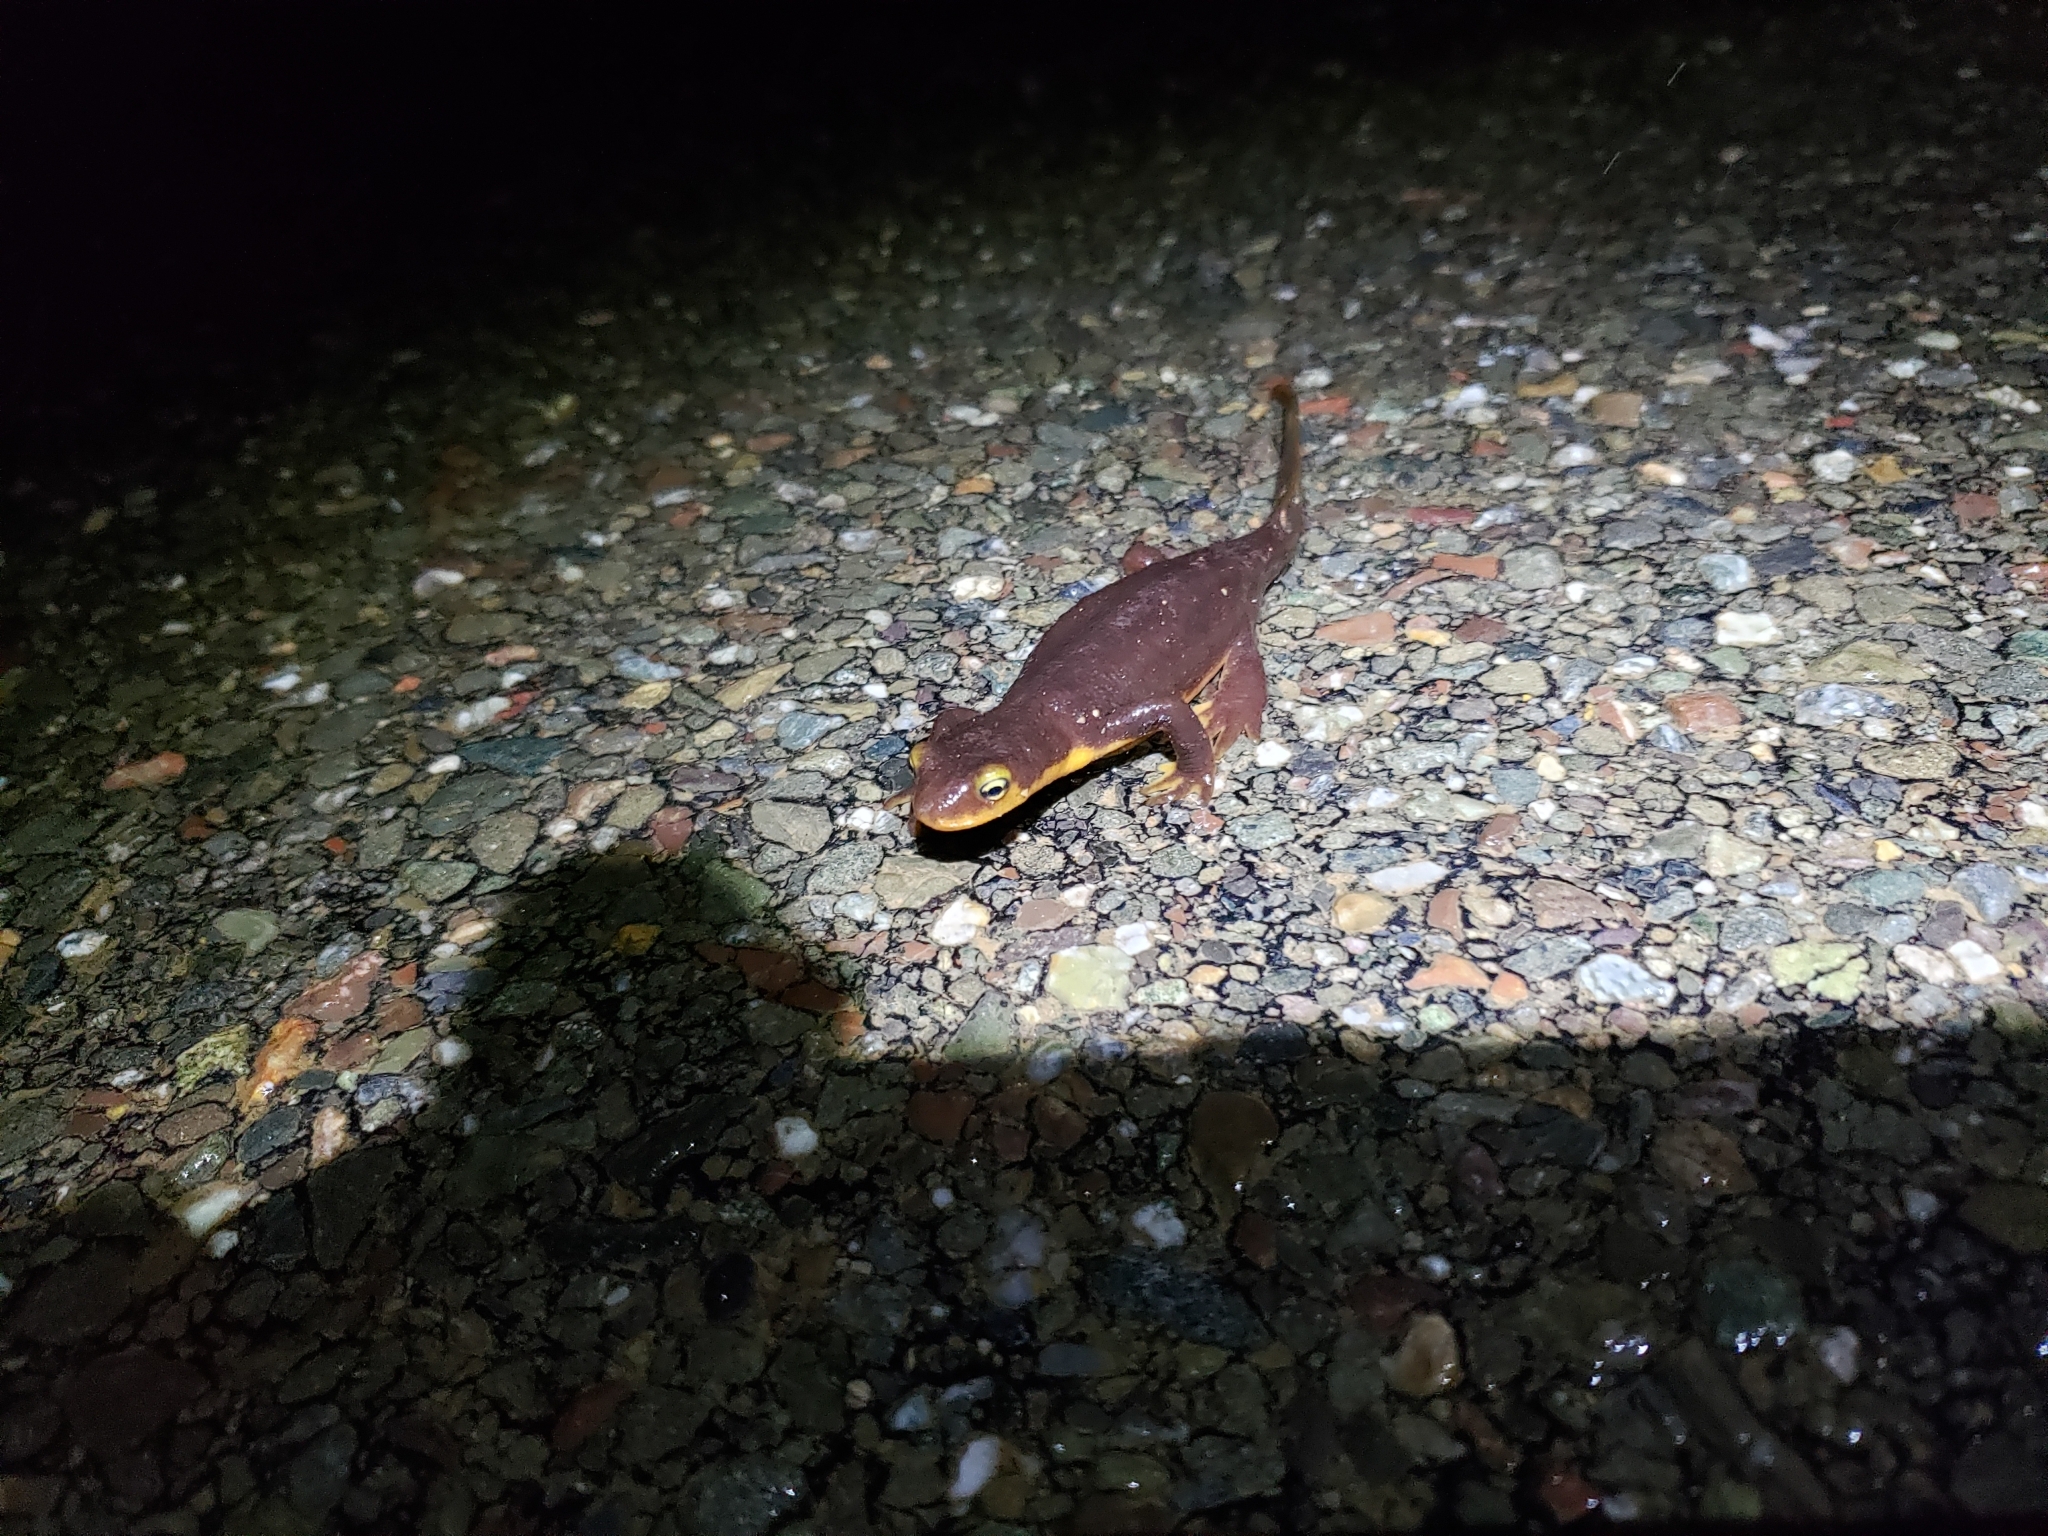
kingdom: Animalia
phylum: Chordata
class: Amphibia
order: Caudata
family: Salamandridae
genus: Taricha
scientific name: Taricha torosa
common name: California newt
